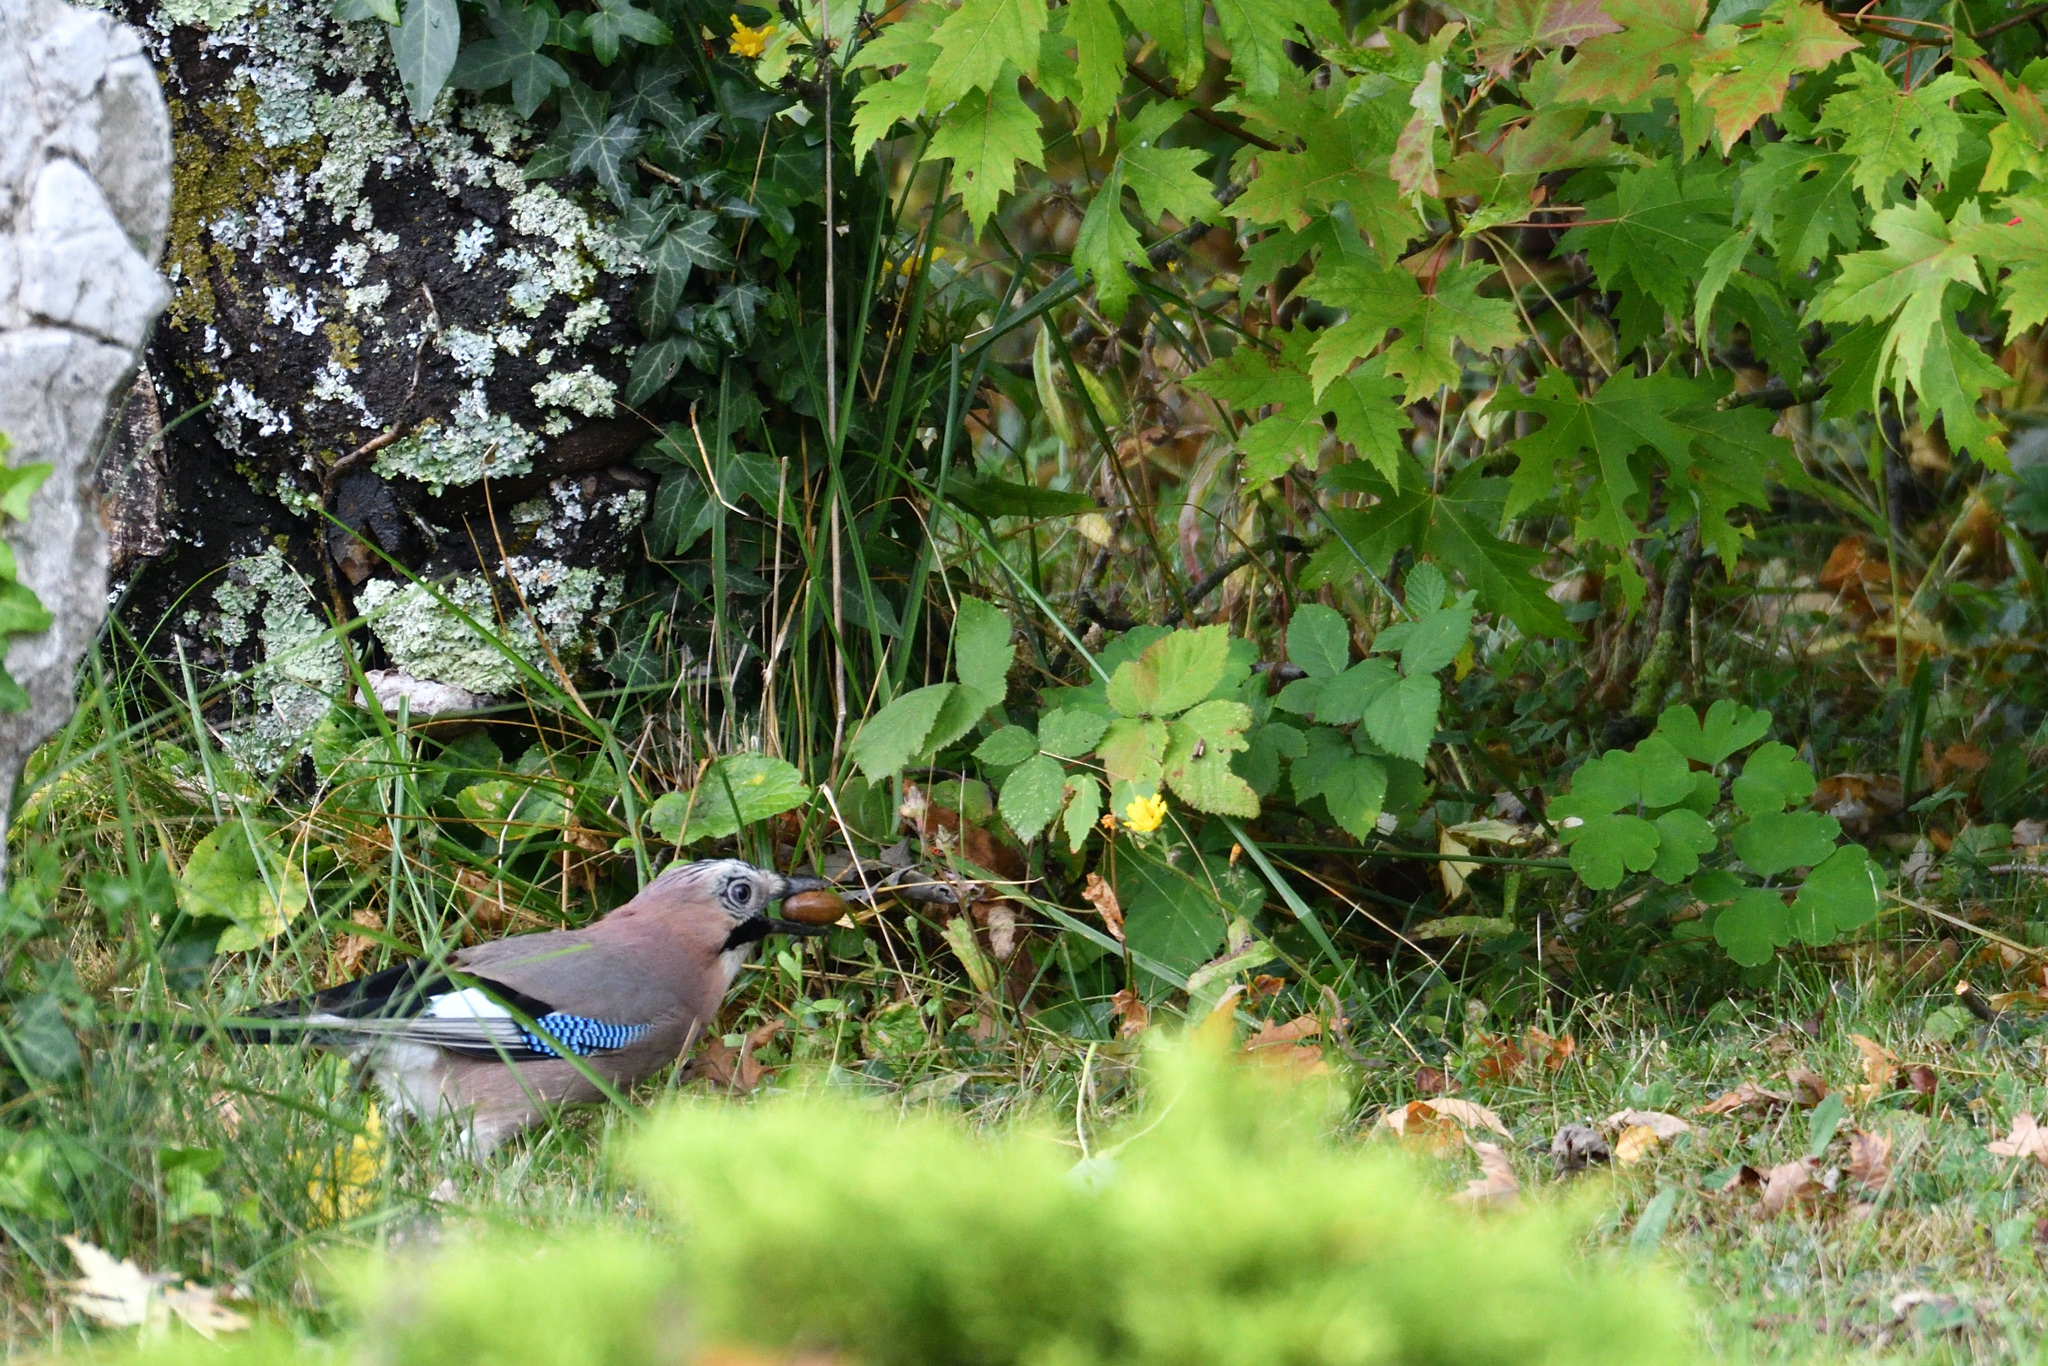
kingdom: Animalia
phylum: Chordata
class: Aves
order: Passeriformes
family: Corvidae
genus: Garrulus
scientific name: Garrulus glandarius
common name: Eurasian jay
